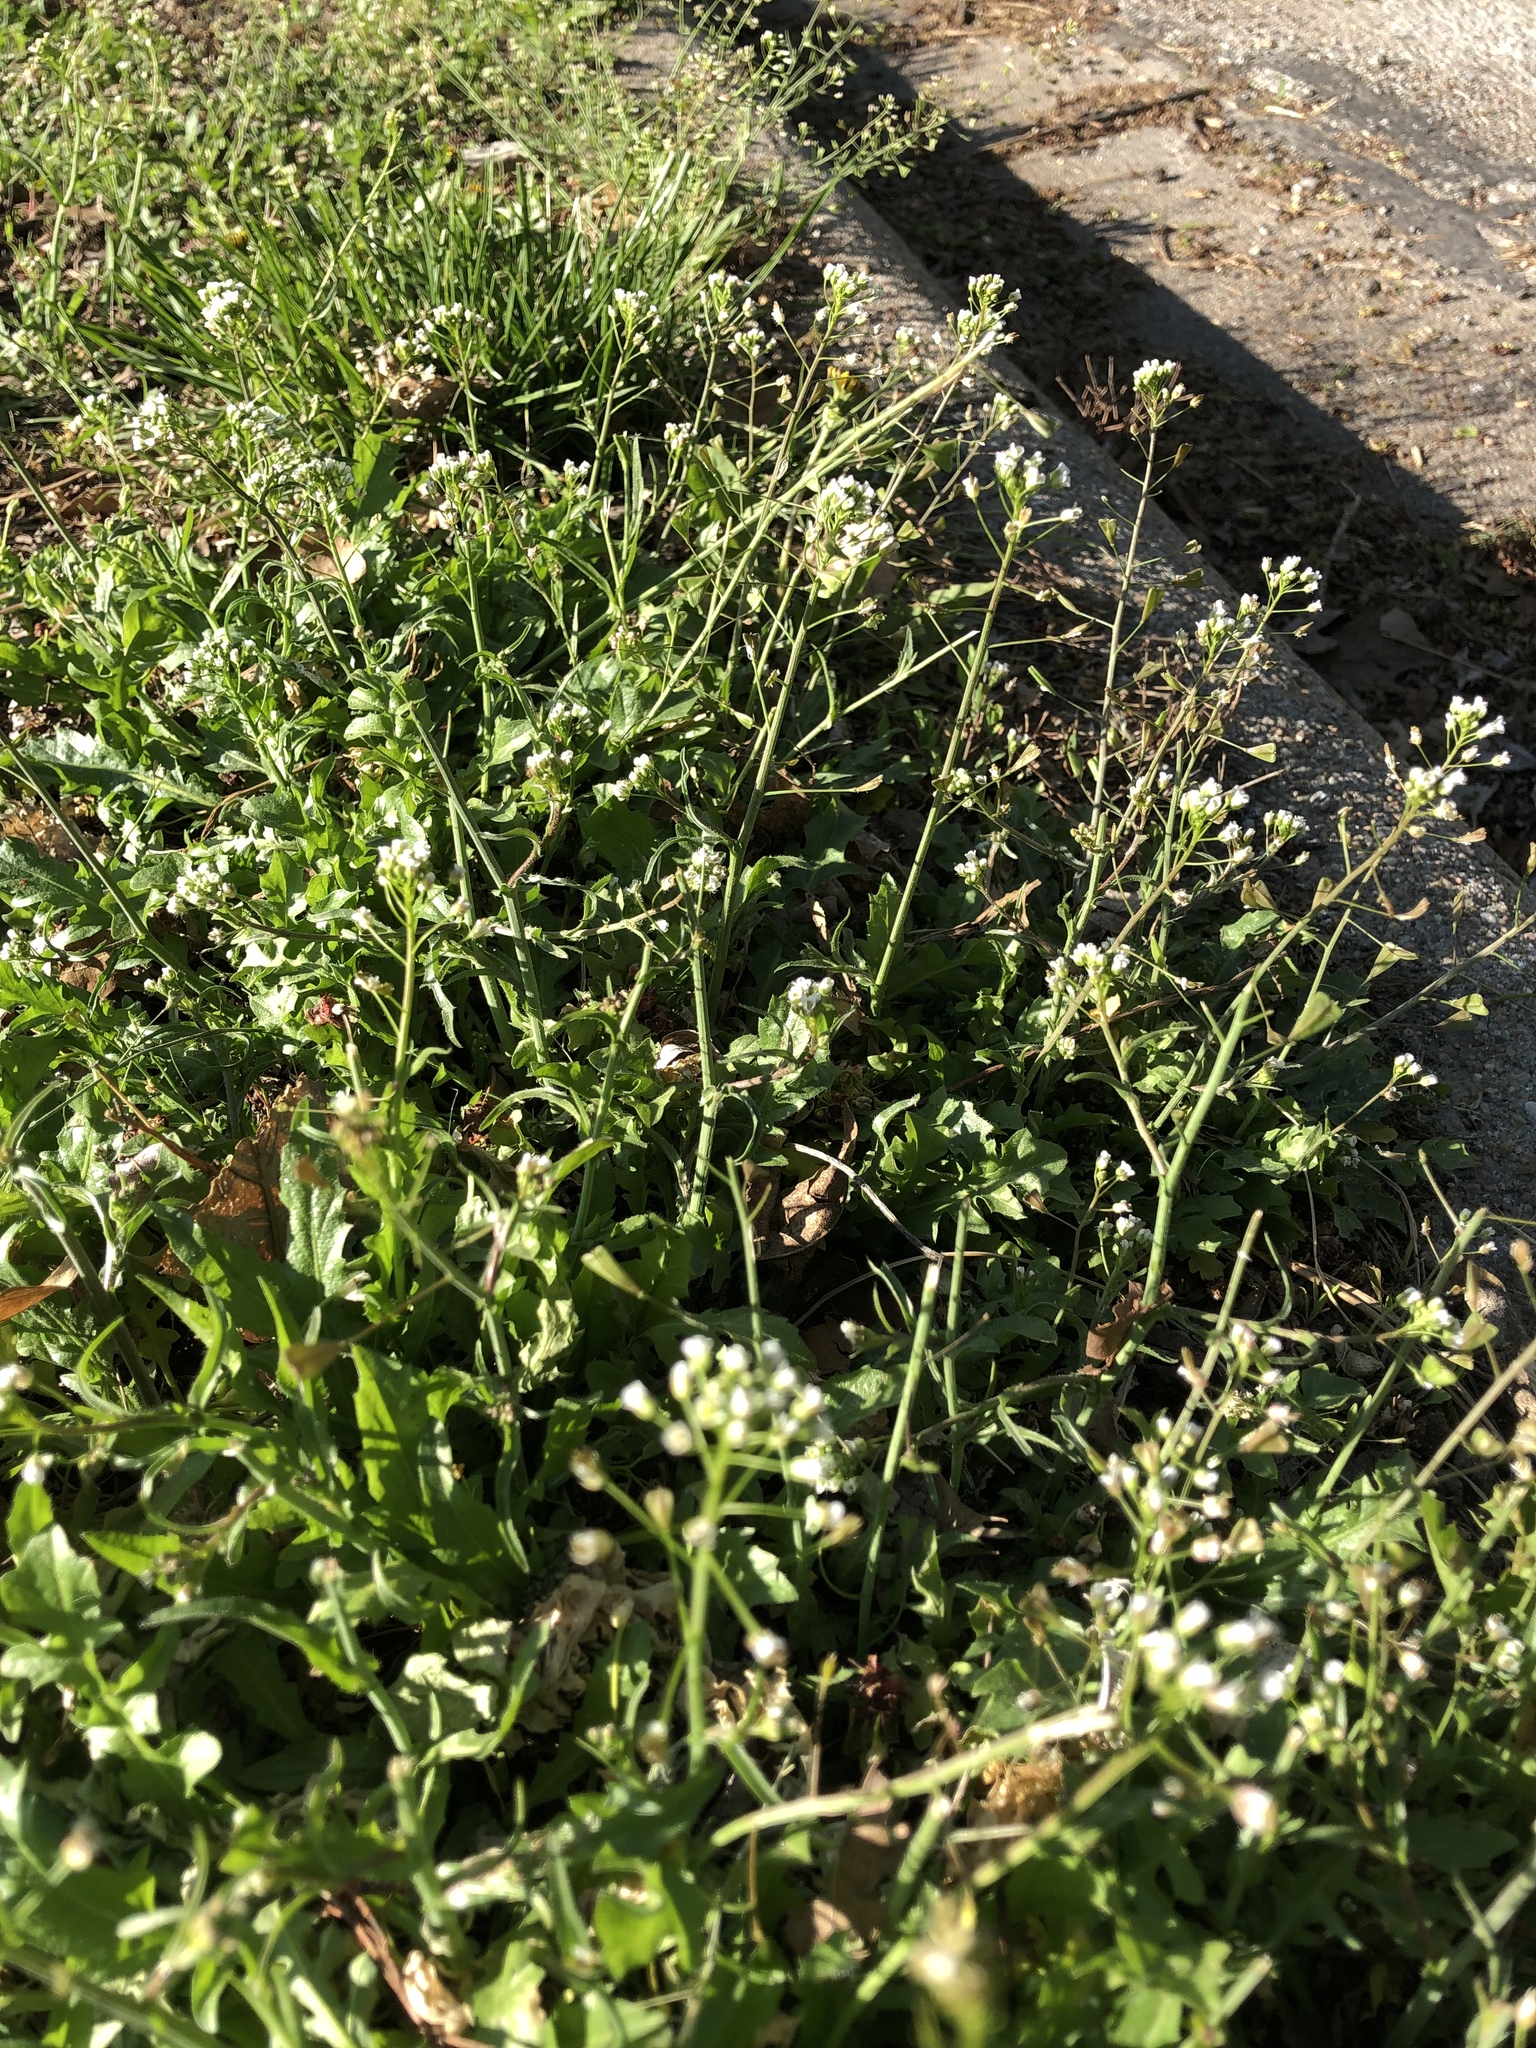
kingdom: Plantae
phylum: Tracheophyta
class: Magnoliopsida
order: Brassicales
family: Brassicaceae
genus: Capsella
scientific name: Capsella bursa-pastoris
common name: Shepherd's purse
